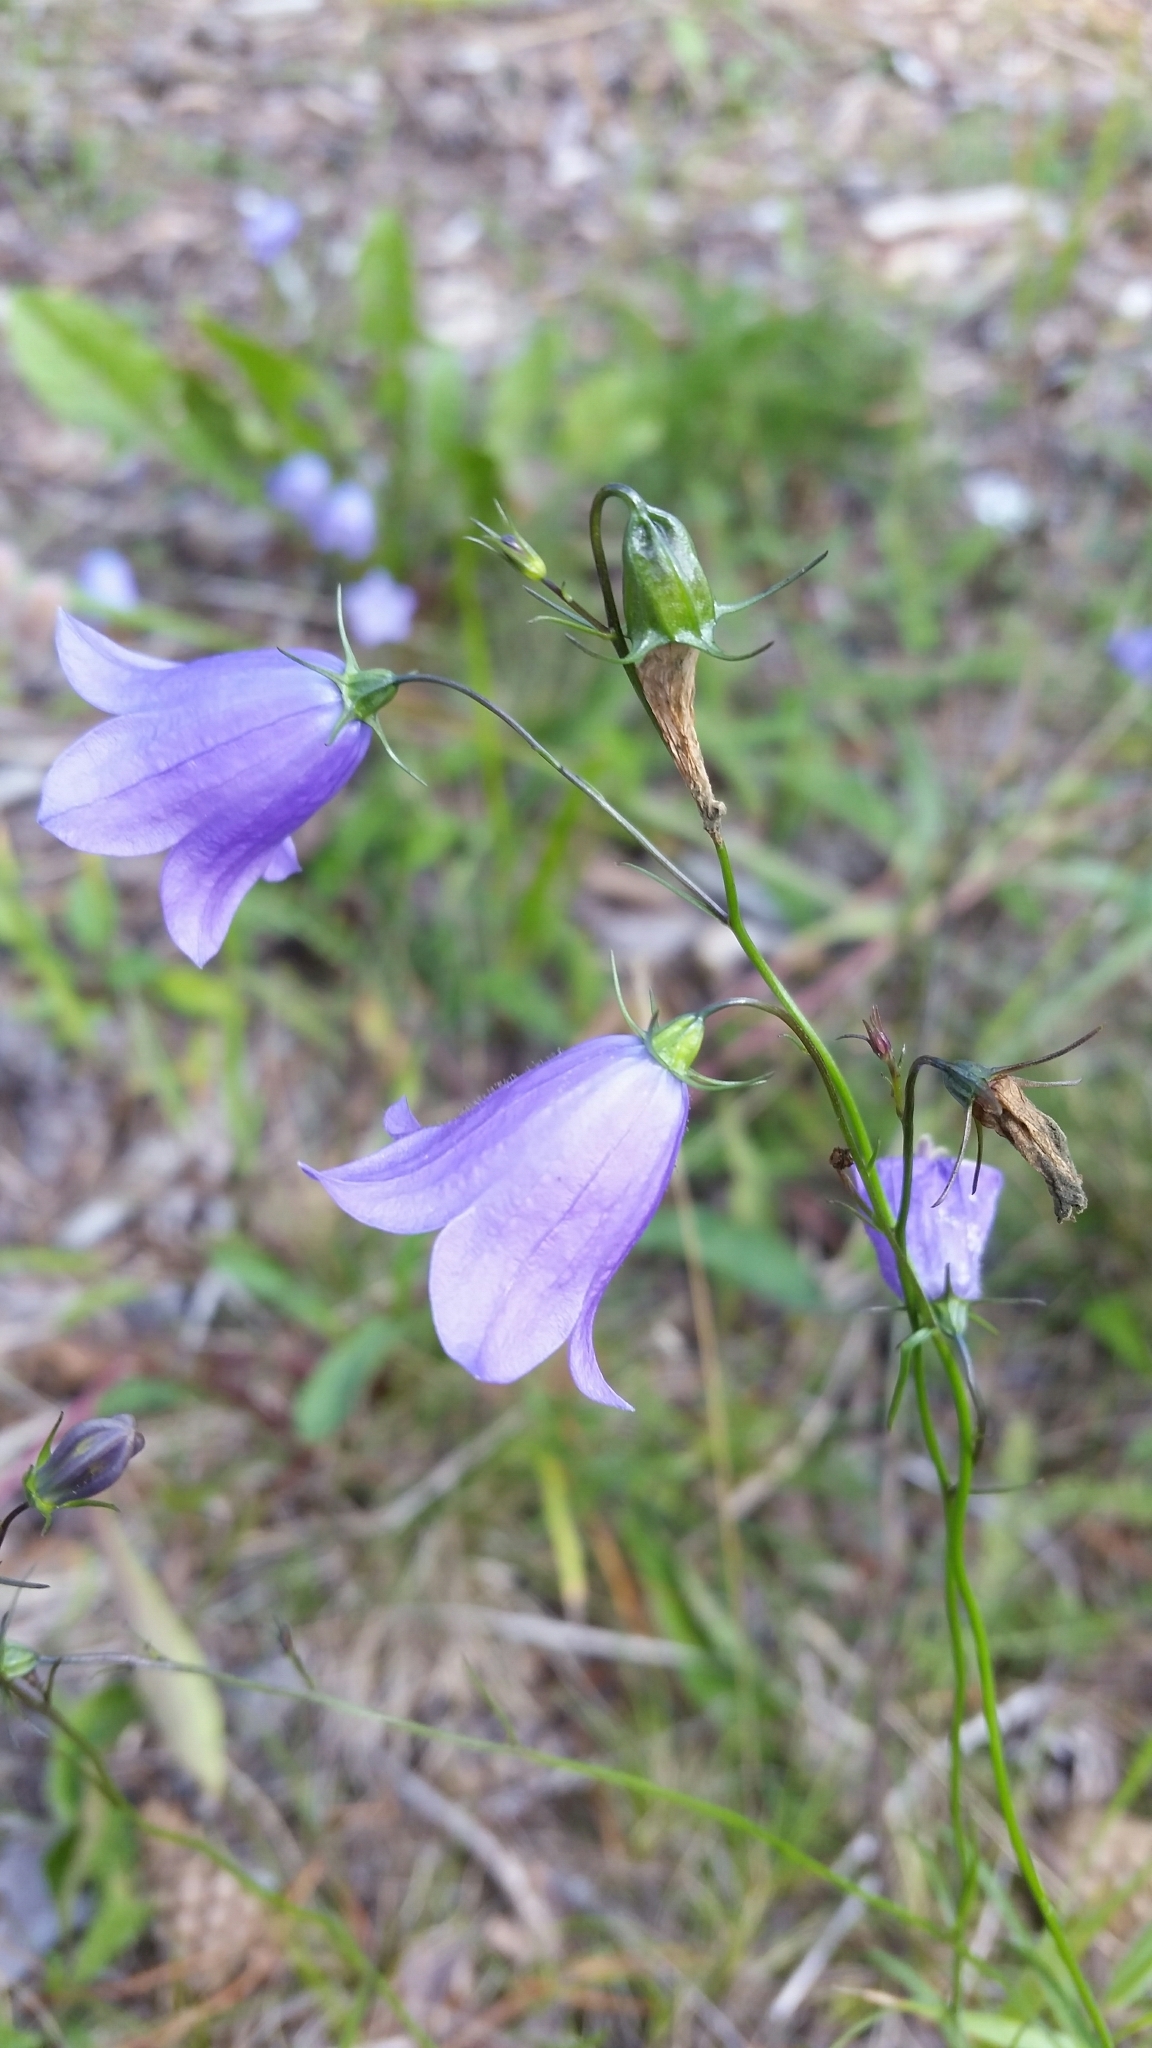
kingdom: Plantae
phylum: Tracheophyta
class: Magnoliopsida
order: Asterales
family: Campanulaceae
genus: Campanula
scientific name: Campanula rotundifolia
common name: Harebell
